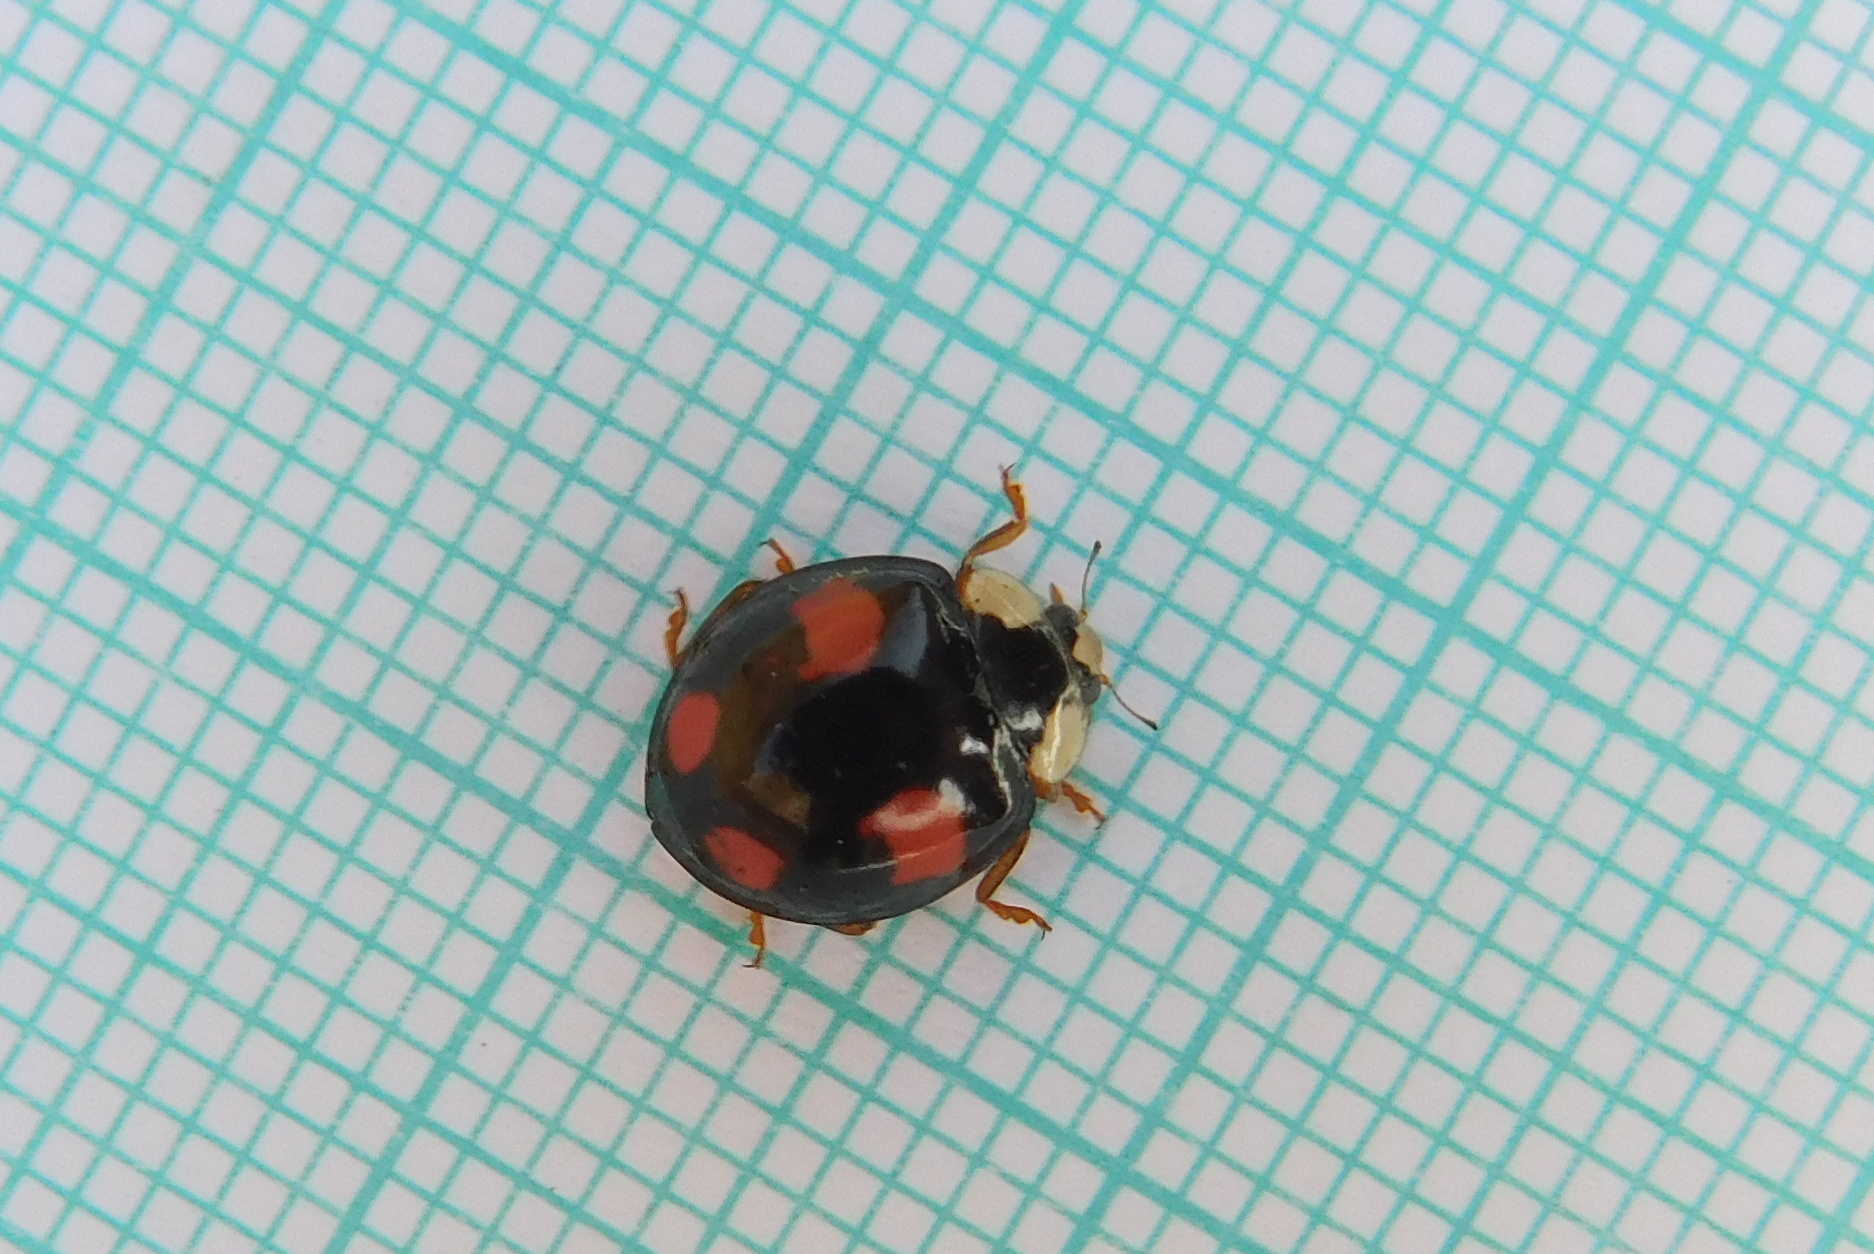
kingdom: Animalia
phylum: Arthropoda
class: Insecta
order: Coleoptera
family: Coccinellidae
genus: Harmonia
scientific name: Harmonia axyridis
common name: Harlequin ladybird
